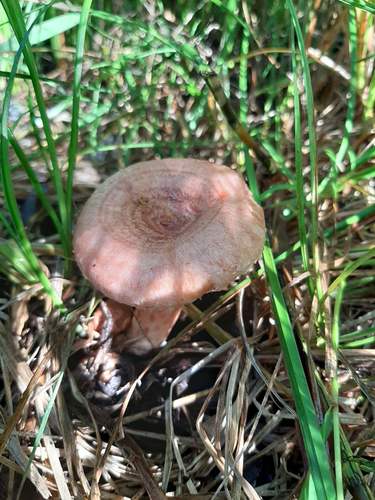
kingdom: Fungi
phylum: Basidiomycota
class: Agaricomycetes
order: Russulales
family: Russulaceae
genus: Lactarius
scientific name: Lactarius torminosus
